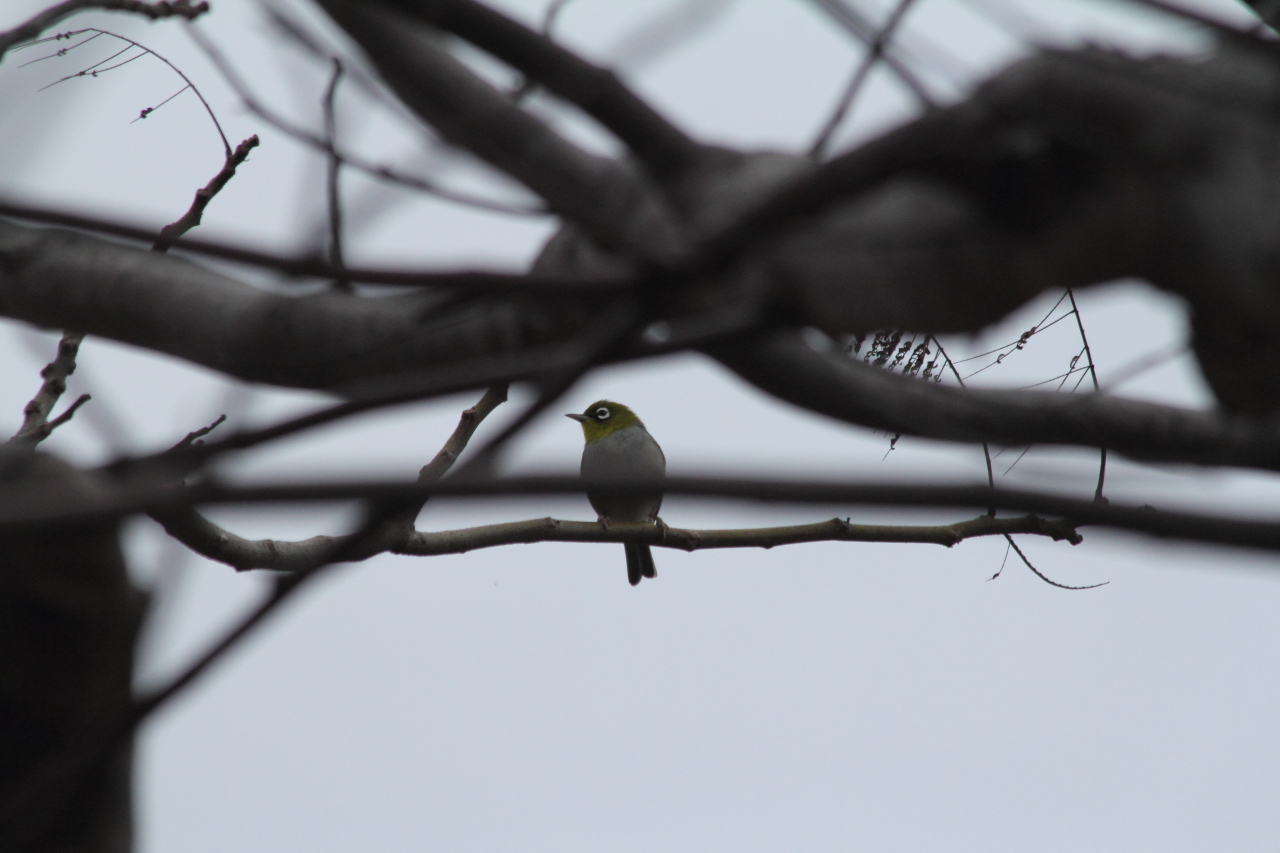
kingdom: Animalia
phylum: Chordata
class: Aves
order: Passeriformes
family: Zosteropidae
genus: Zosterops
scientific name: Zosterops lateralis
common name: Silvereye
